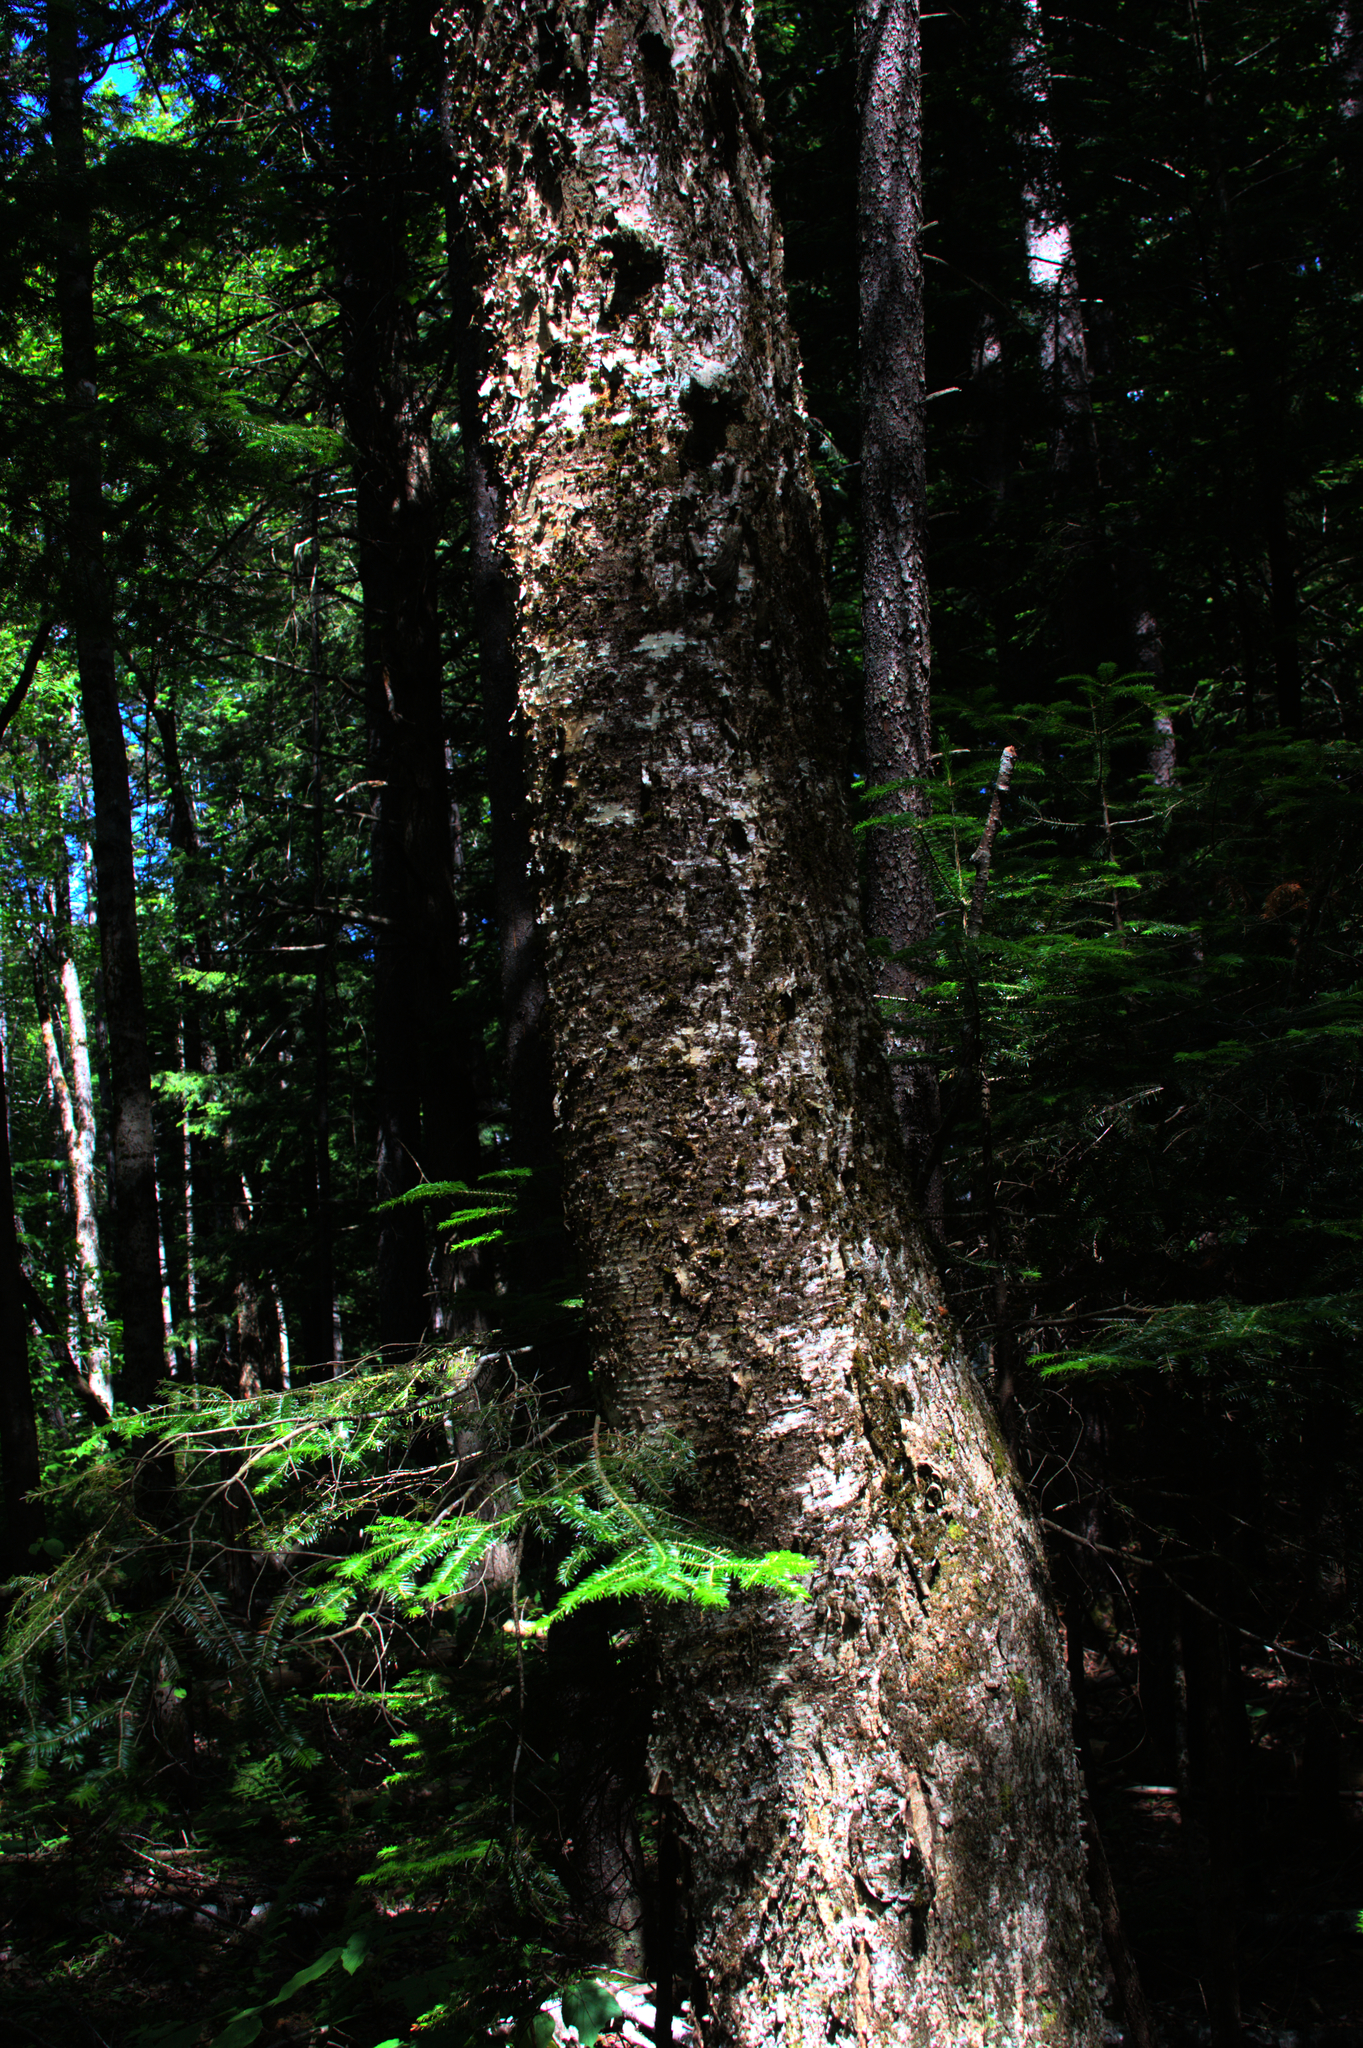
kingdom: Plantae
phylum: Tracheophyta
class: Magnoliopsida
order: Fagales
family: Betulaceae
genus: Betula
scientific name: Betula alleghaniensis
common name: Yellow birch
